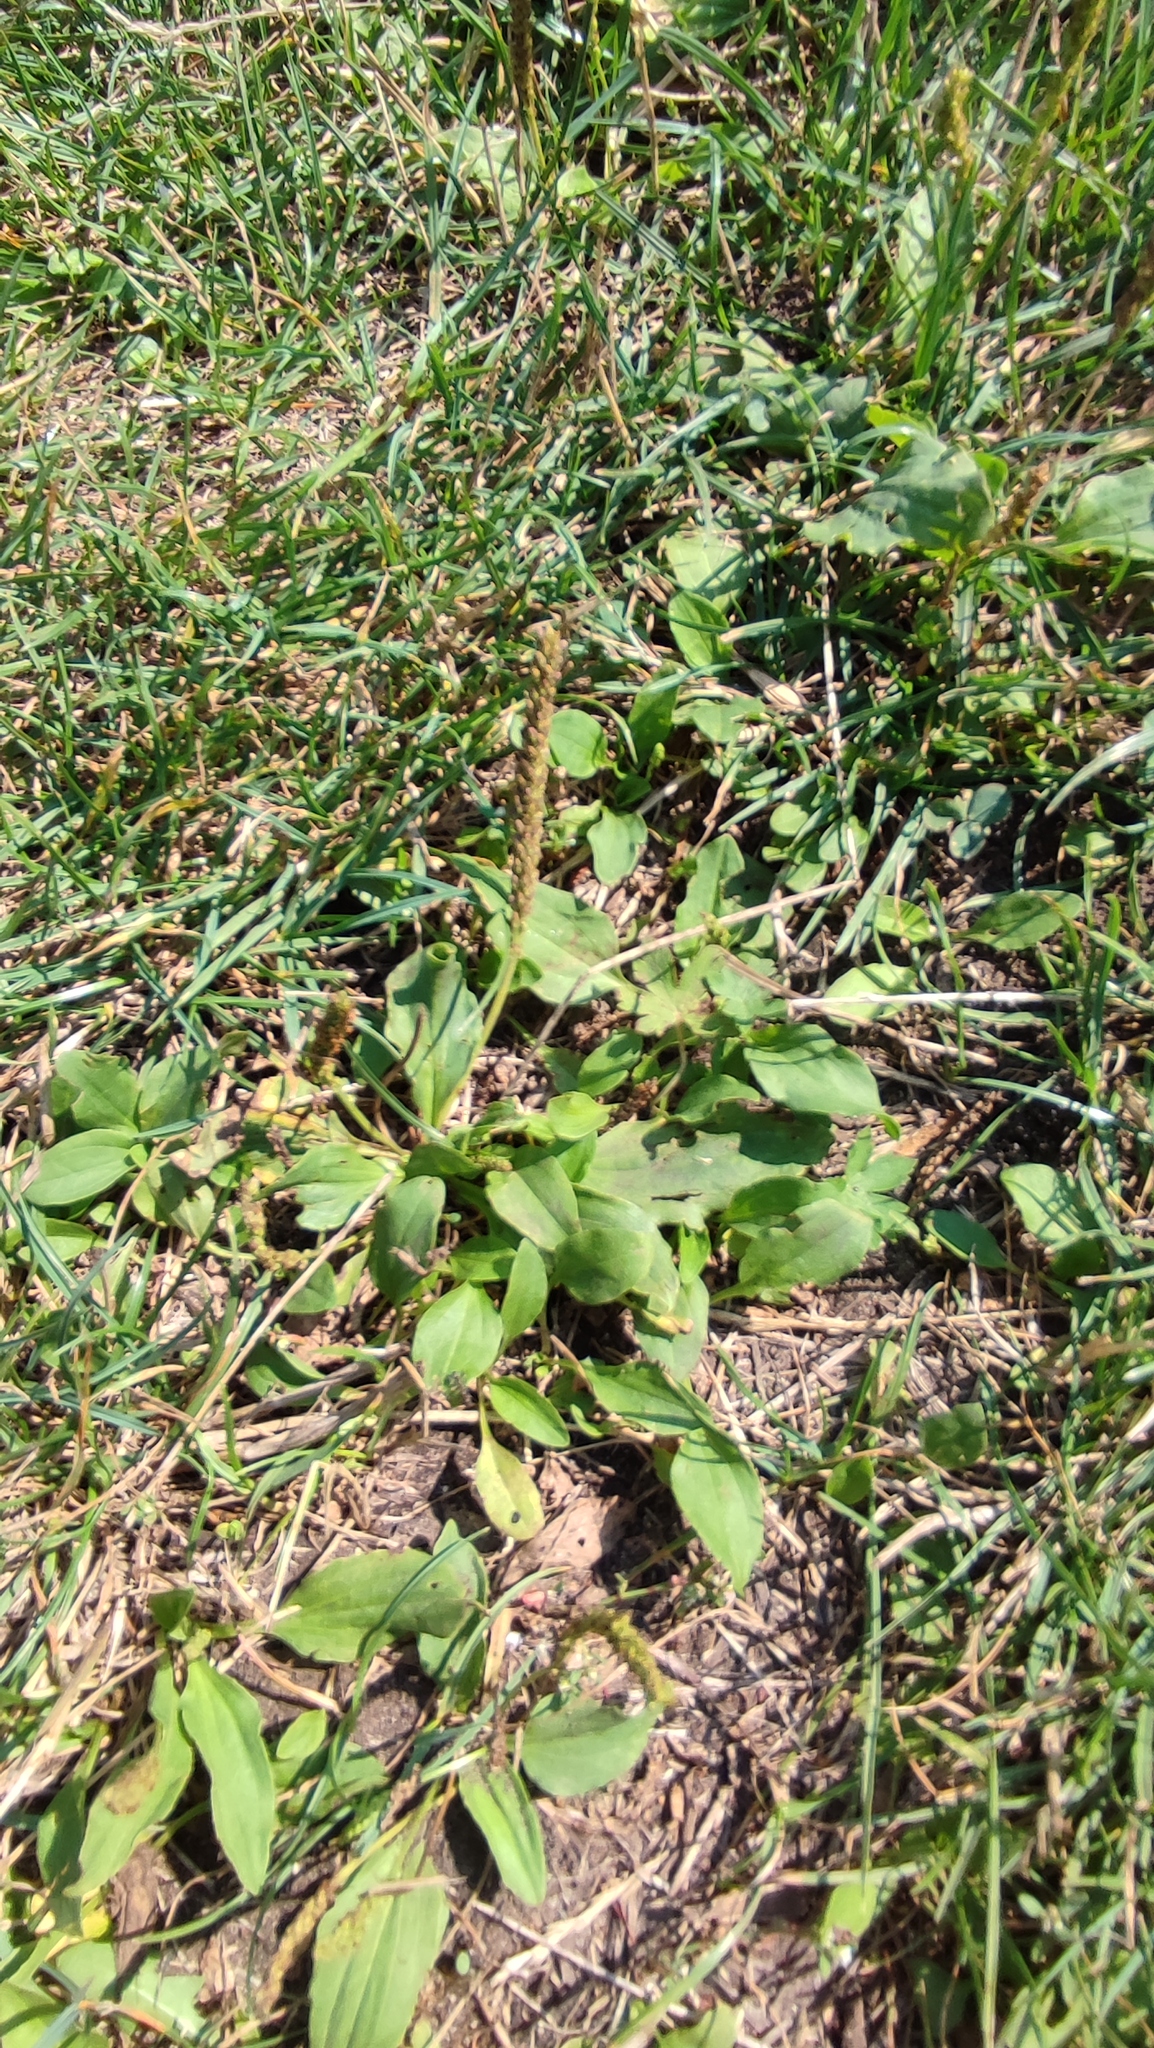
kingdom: Plantae
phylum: Tracheophyta
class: Magnoliopsida
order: Lamiales
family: Plantaginaceae
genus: Plantago
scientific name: Plantago major
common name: Common plantain
